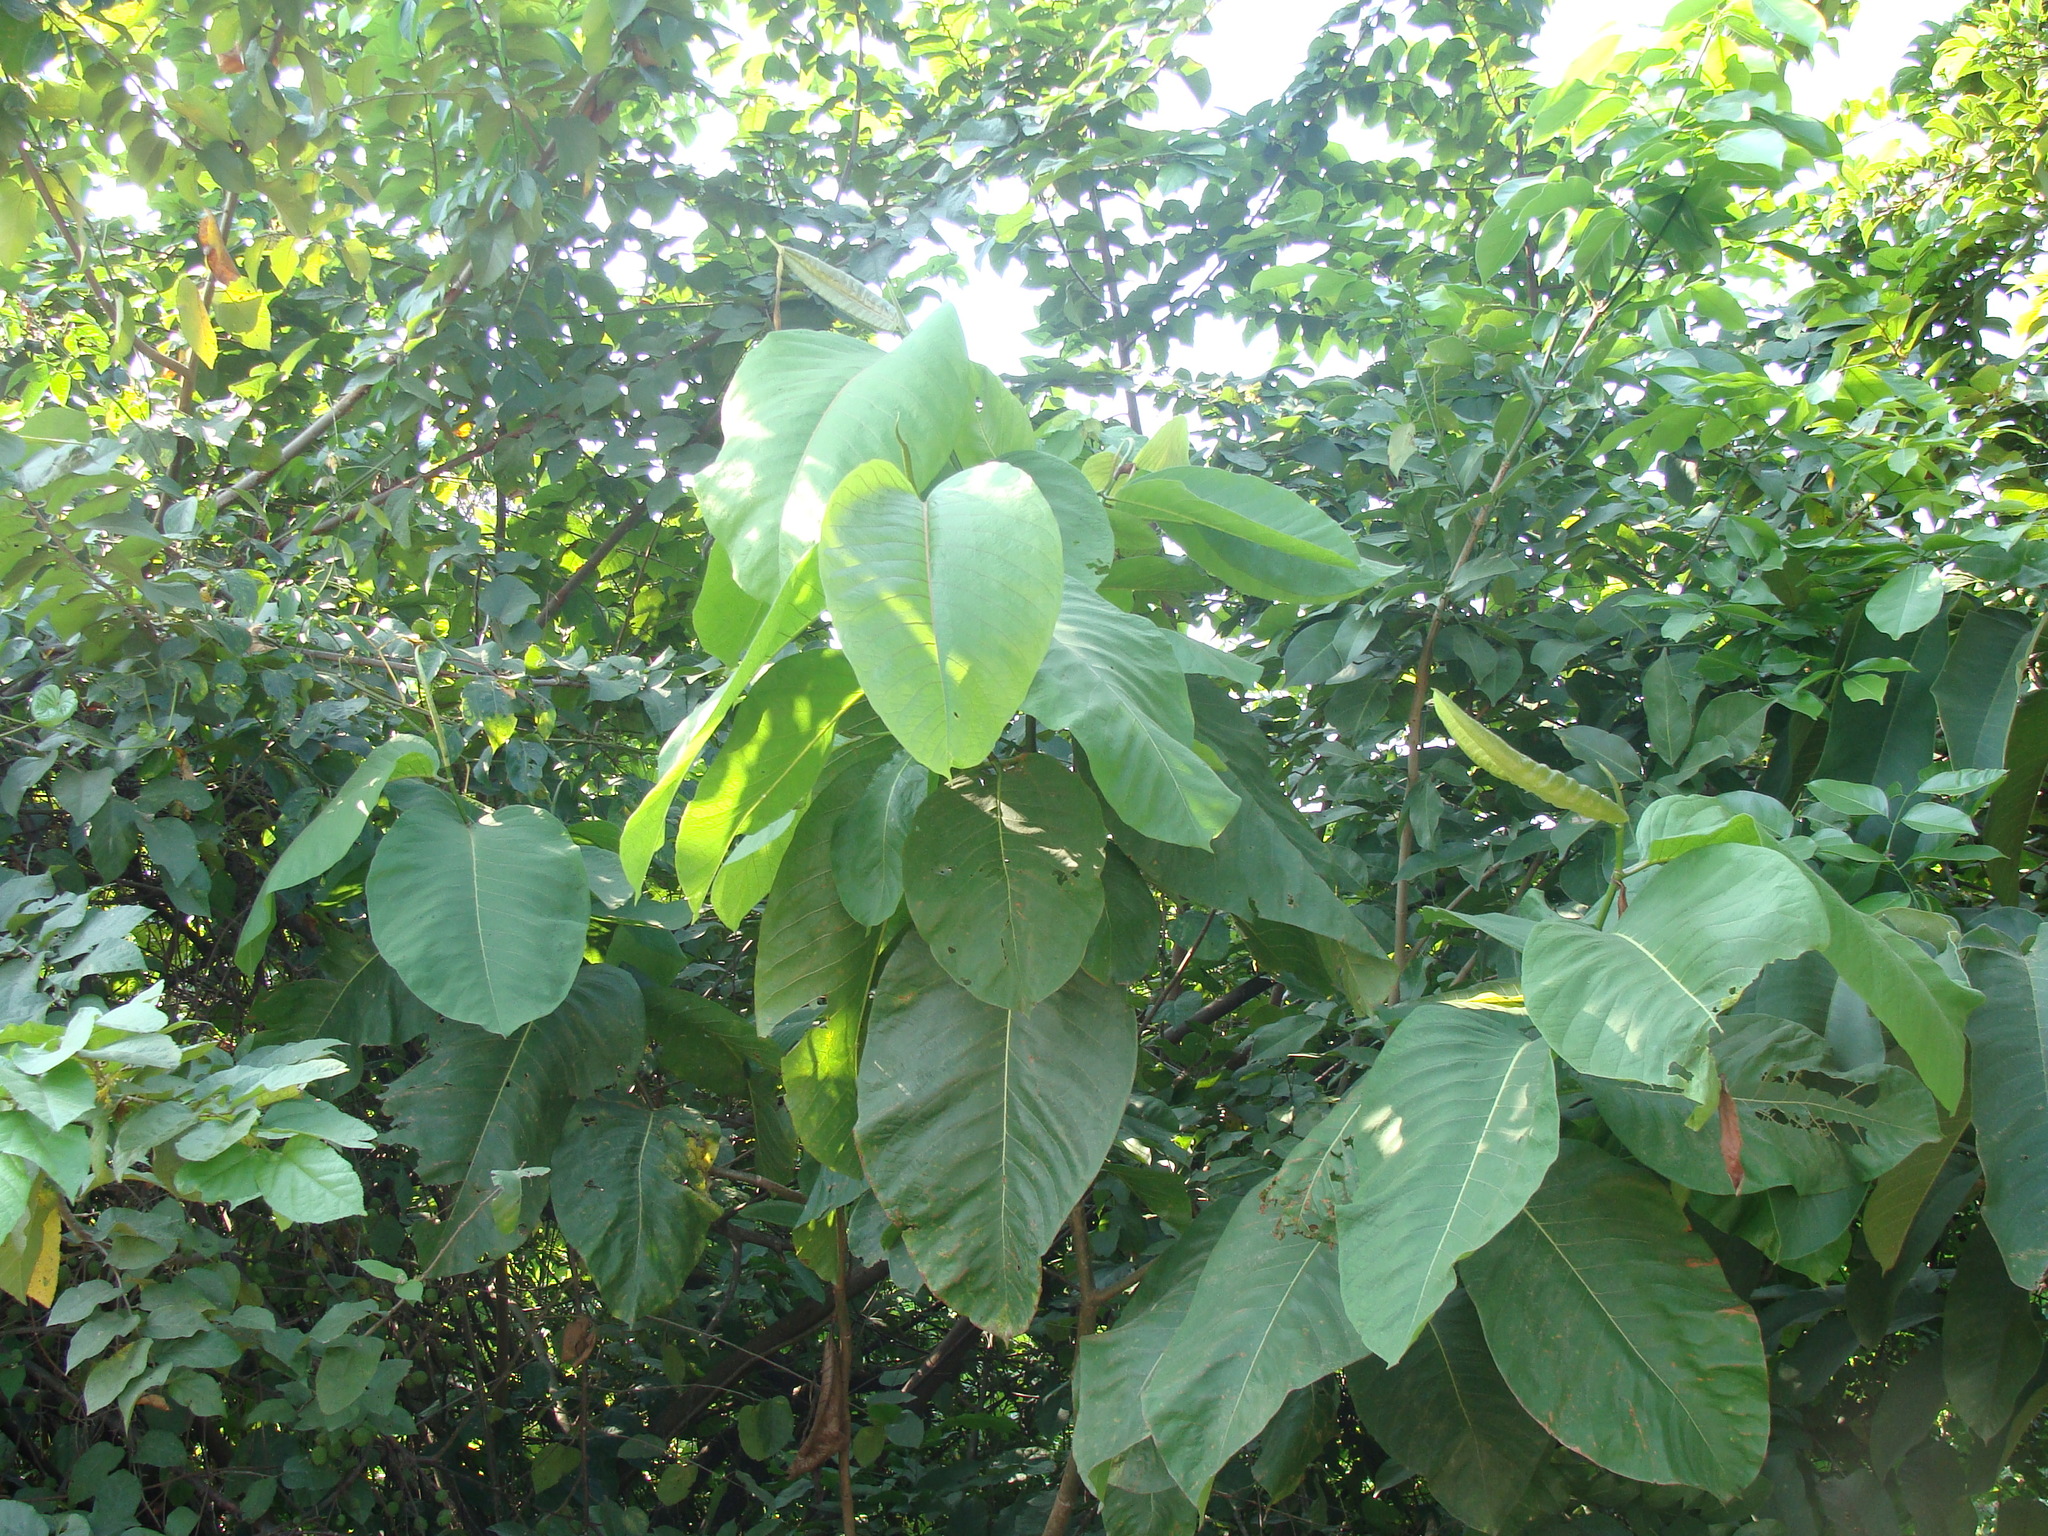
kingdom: Plantae
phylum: Tracheophyta
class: Magnoliopsida
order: Caryophyllales
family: Polygonaceae
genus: Triplaris
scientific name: Triplaris melaenodendron
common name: Long john
